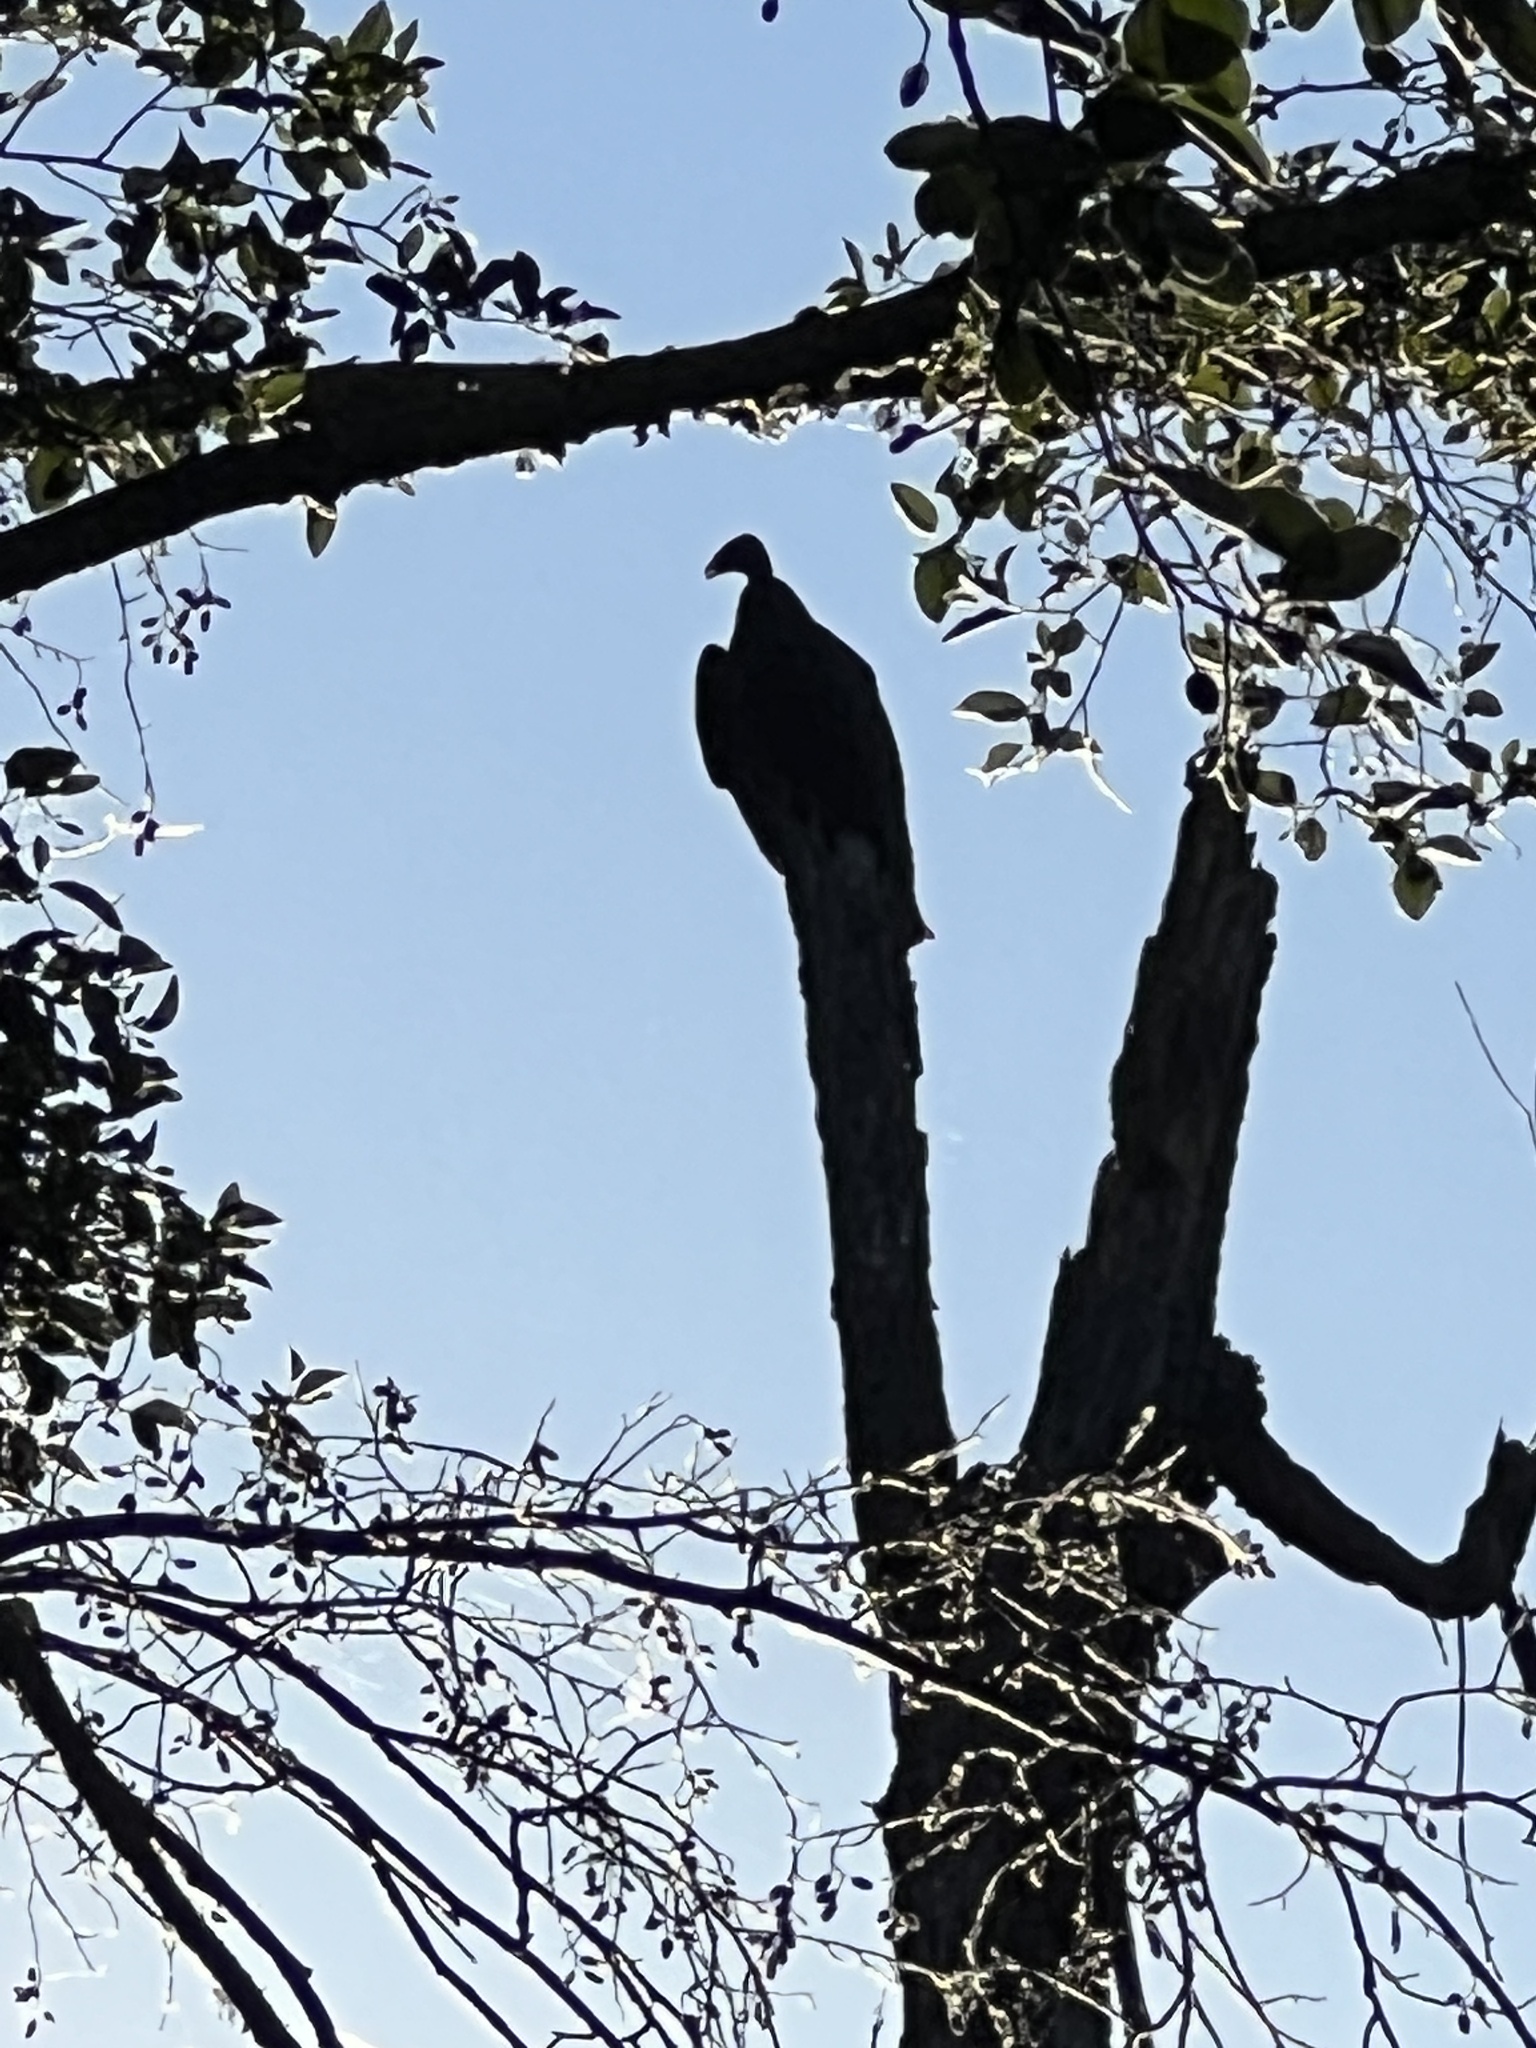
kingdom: Animalia
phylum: Chordata
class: Aves
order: Accipitriformes
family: Cathartidae
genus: Cathartes
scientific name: Cathartes aura
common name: Turkey vulture
